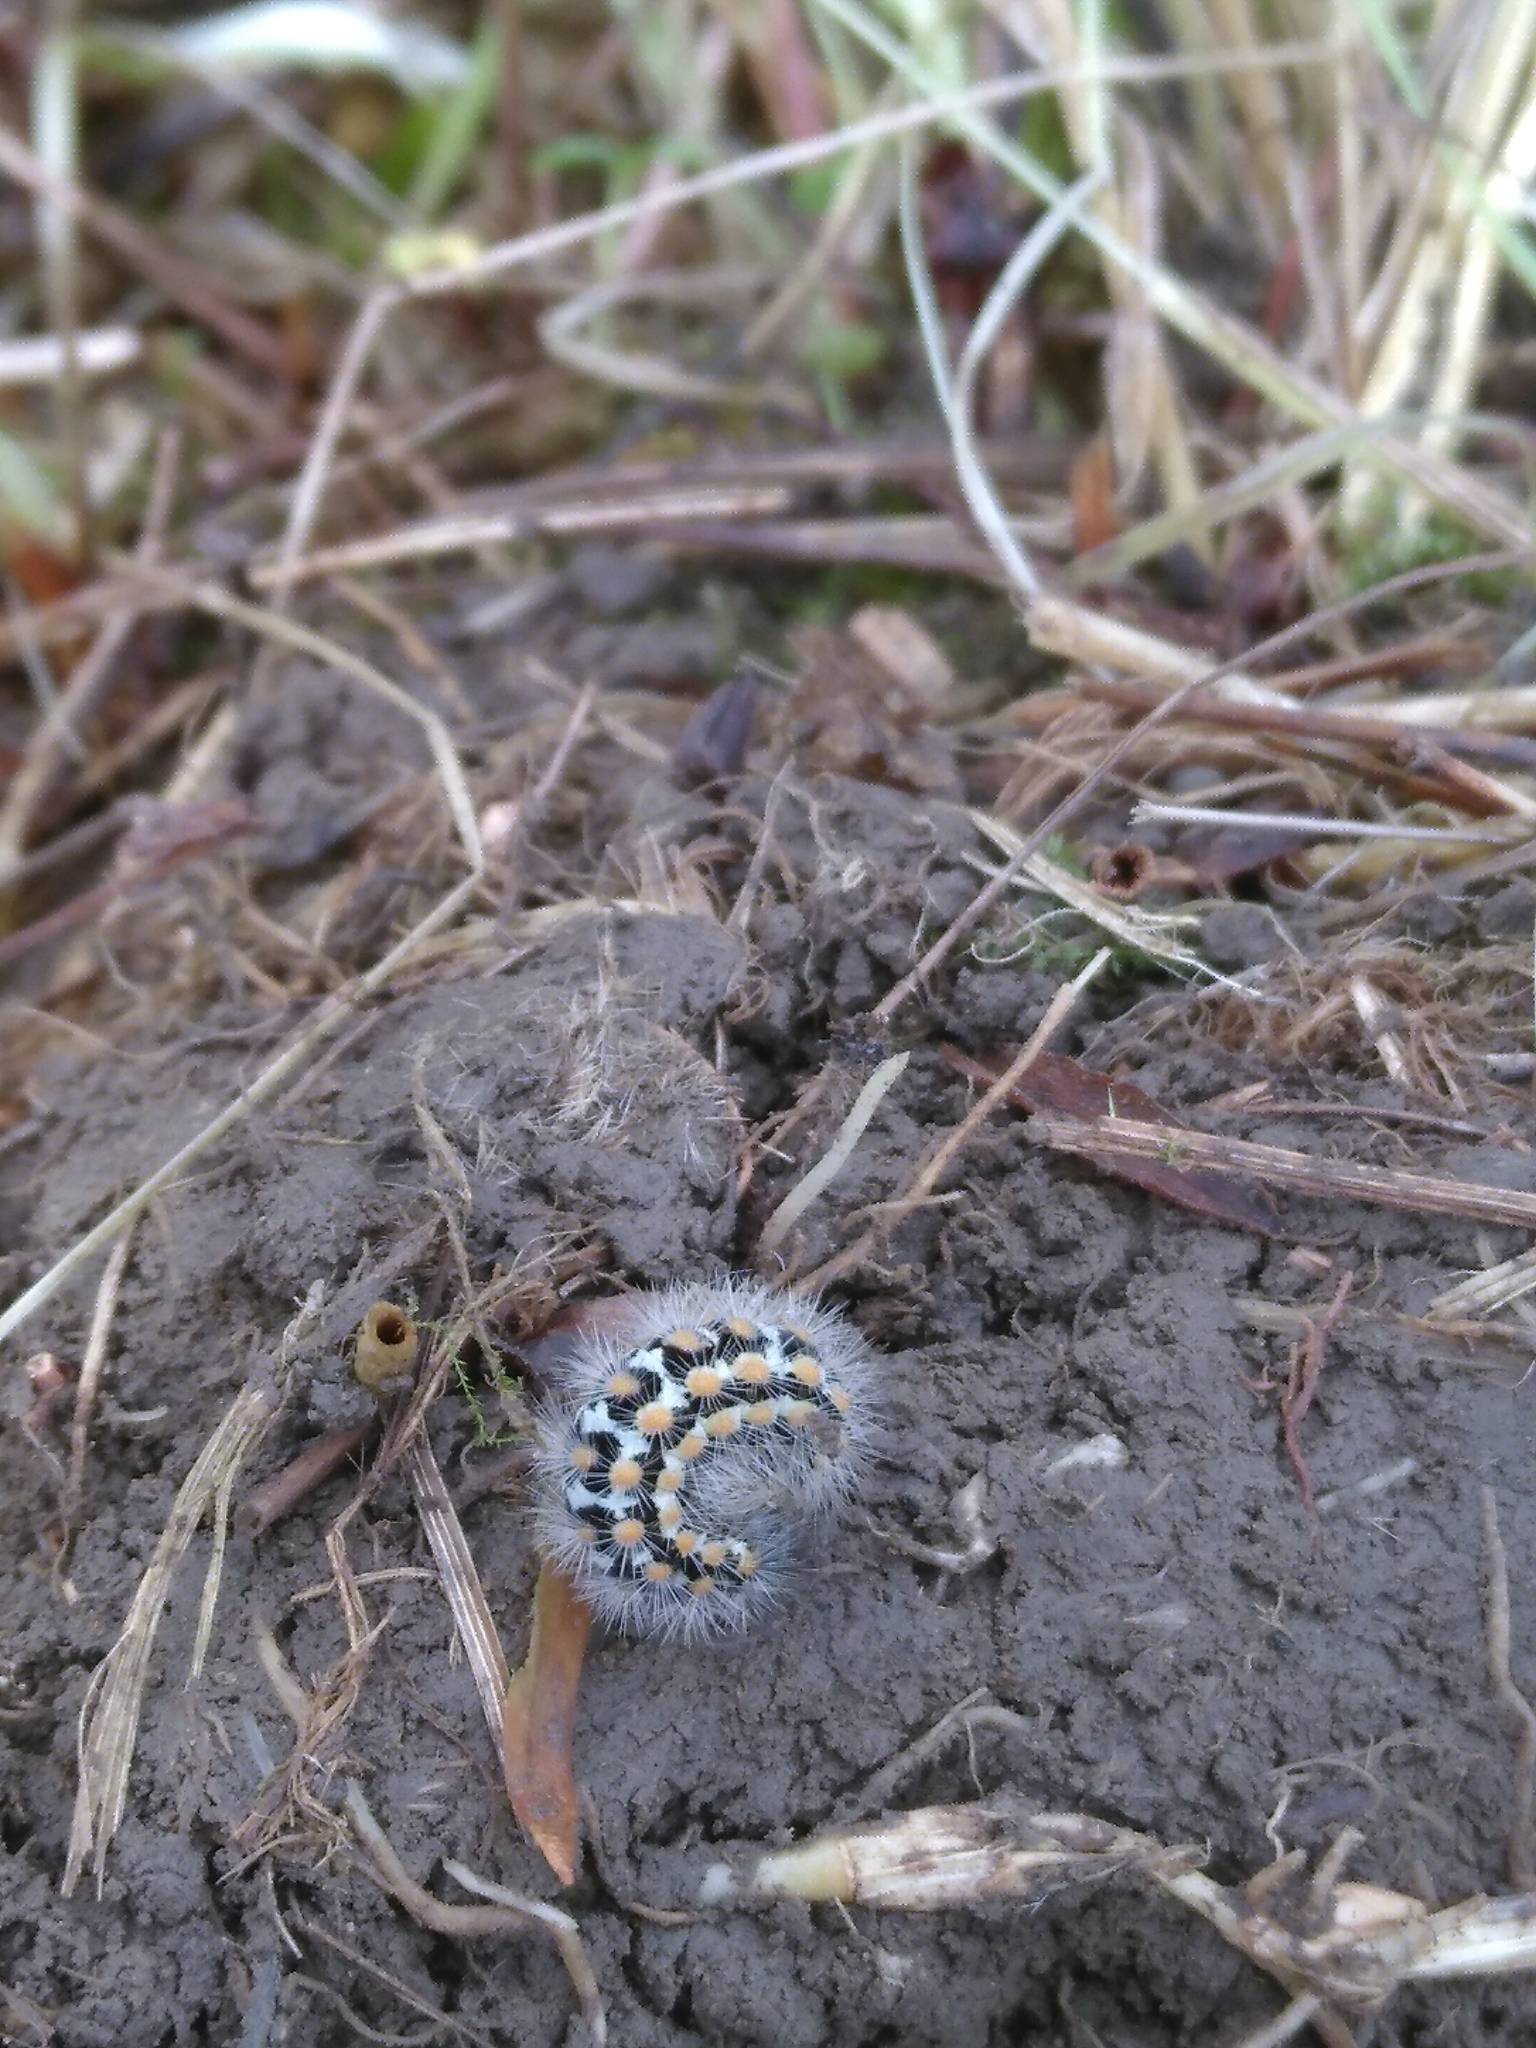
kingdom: Animalia
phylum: Arthropoda
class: Insecta
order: Lepidoptera
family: Erebidae
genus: Penthophera
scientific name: Penthophera morio
